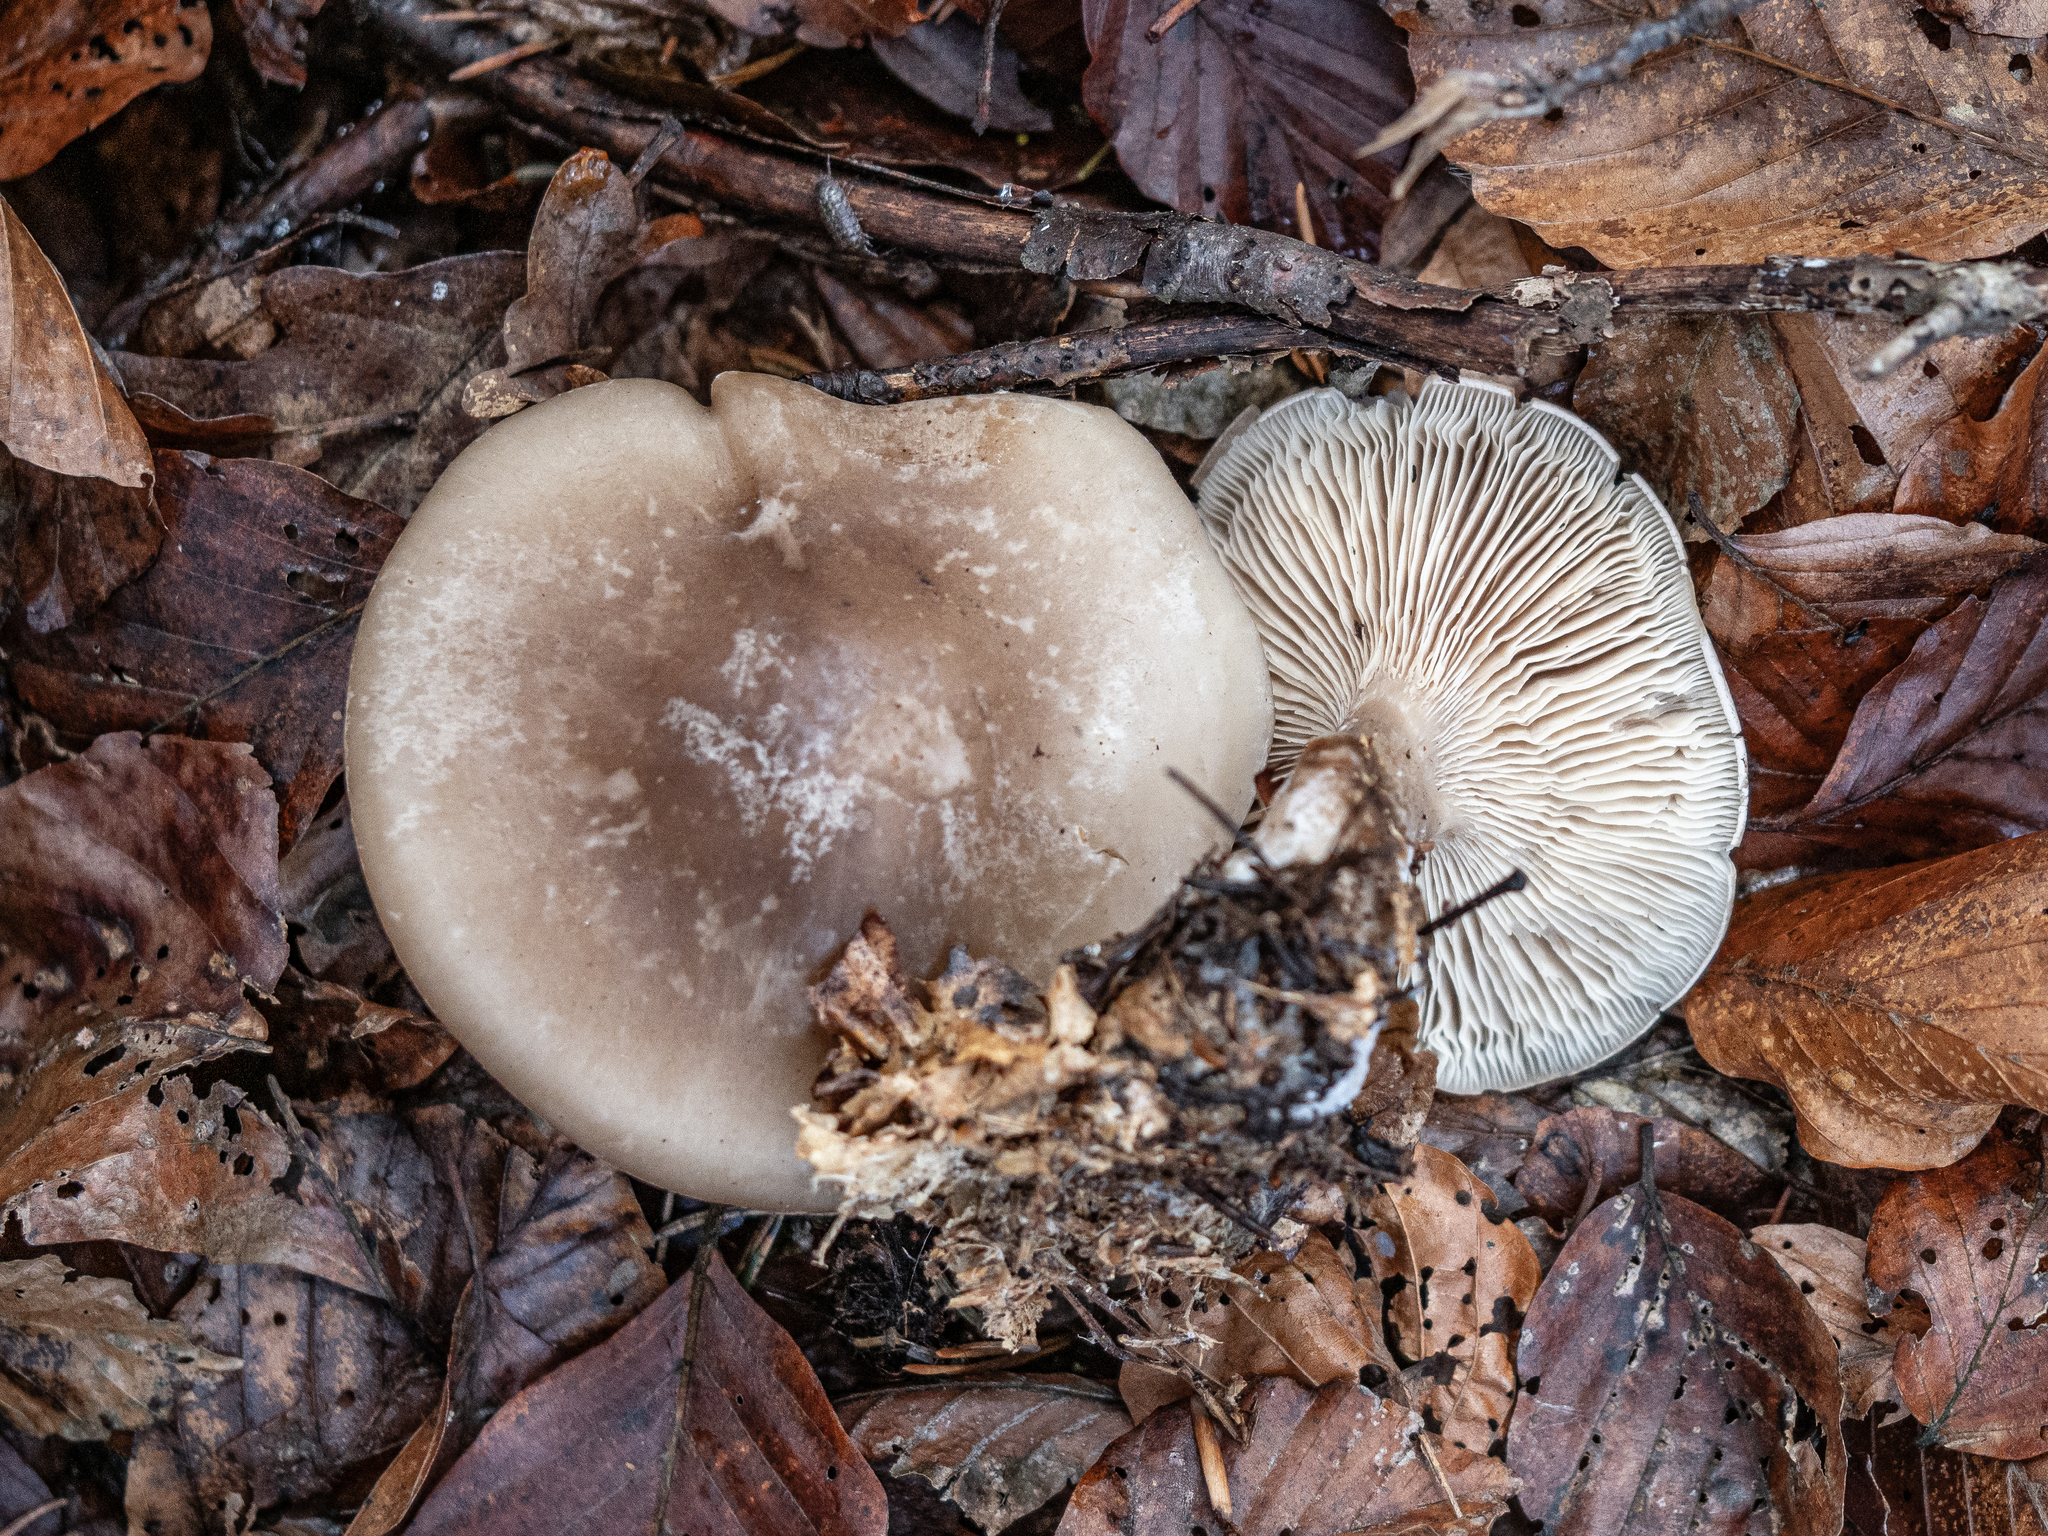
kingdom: Fungi
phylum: Basidiomycota
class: Agaricomycetes
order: Agaricales
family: Tricholomataceae
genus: Clitocybe
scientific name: Clitocybe nebularis
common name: Clouded agaric
